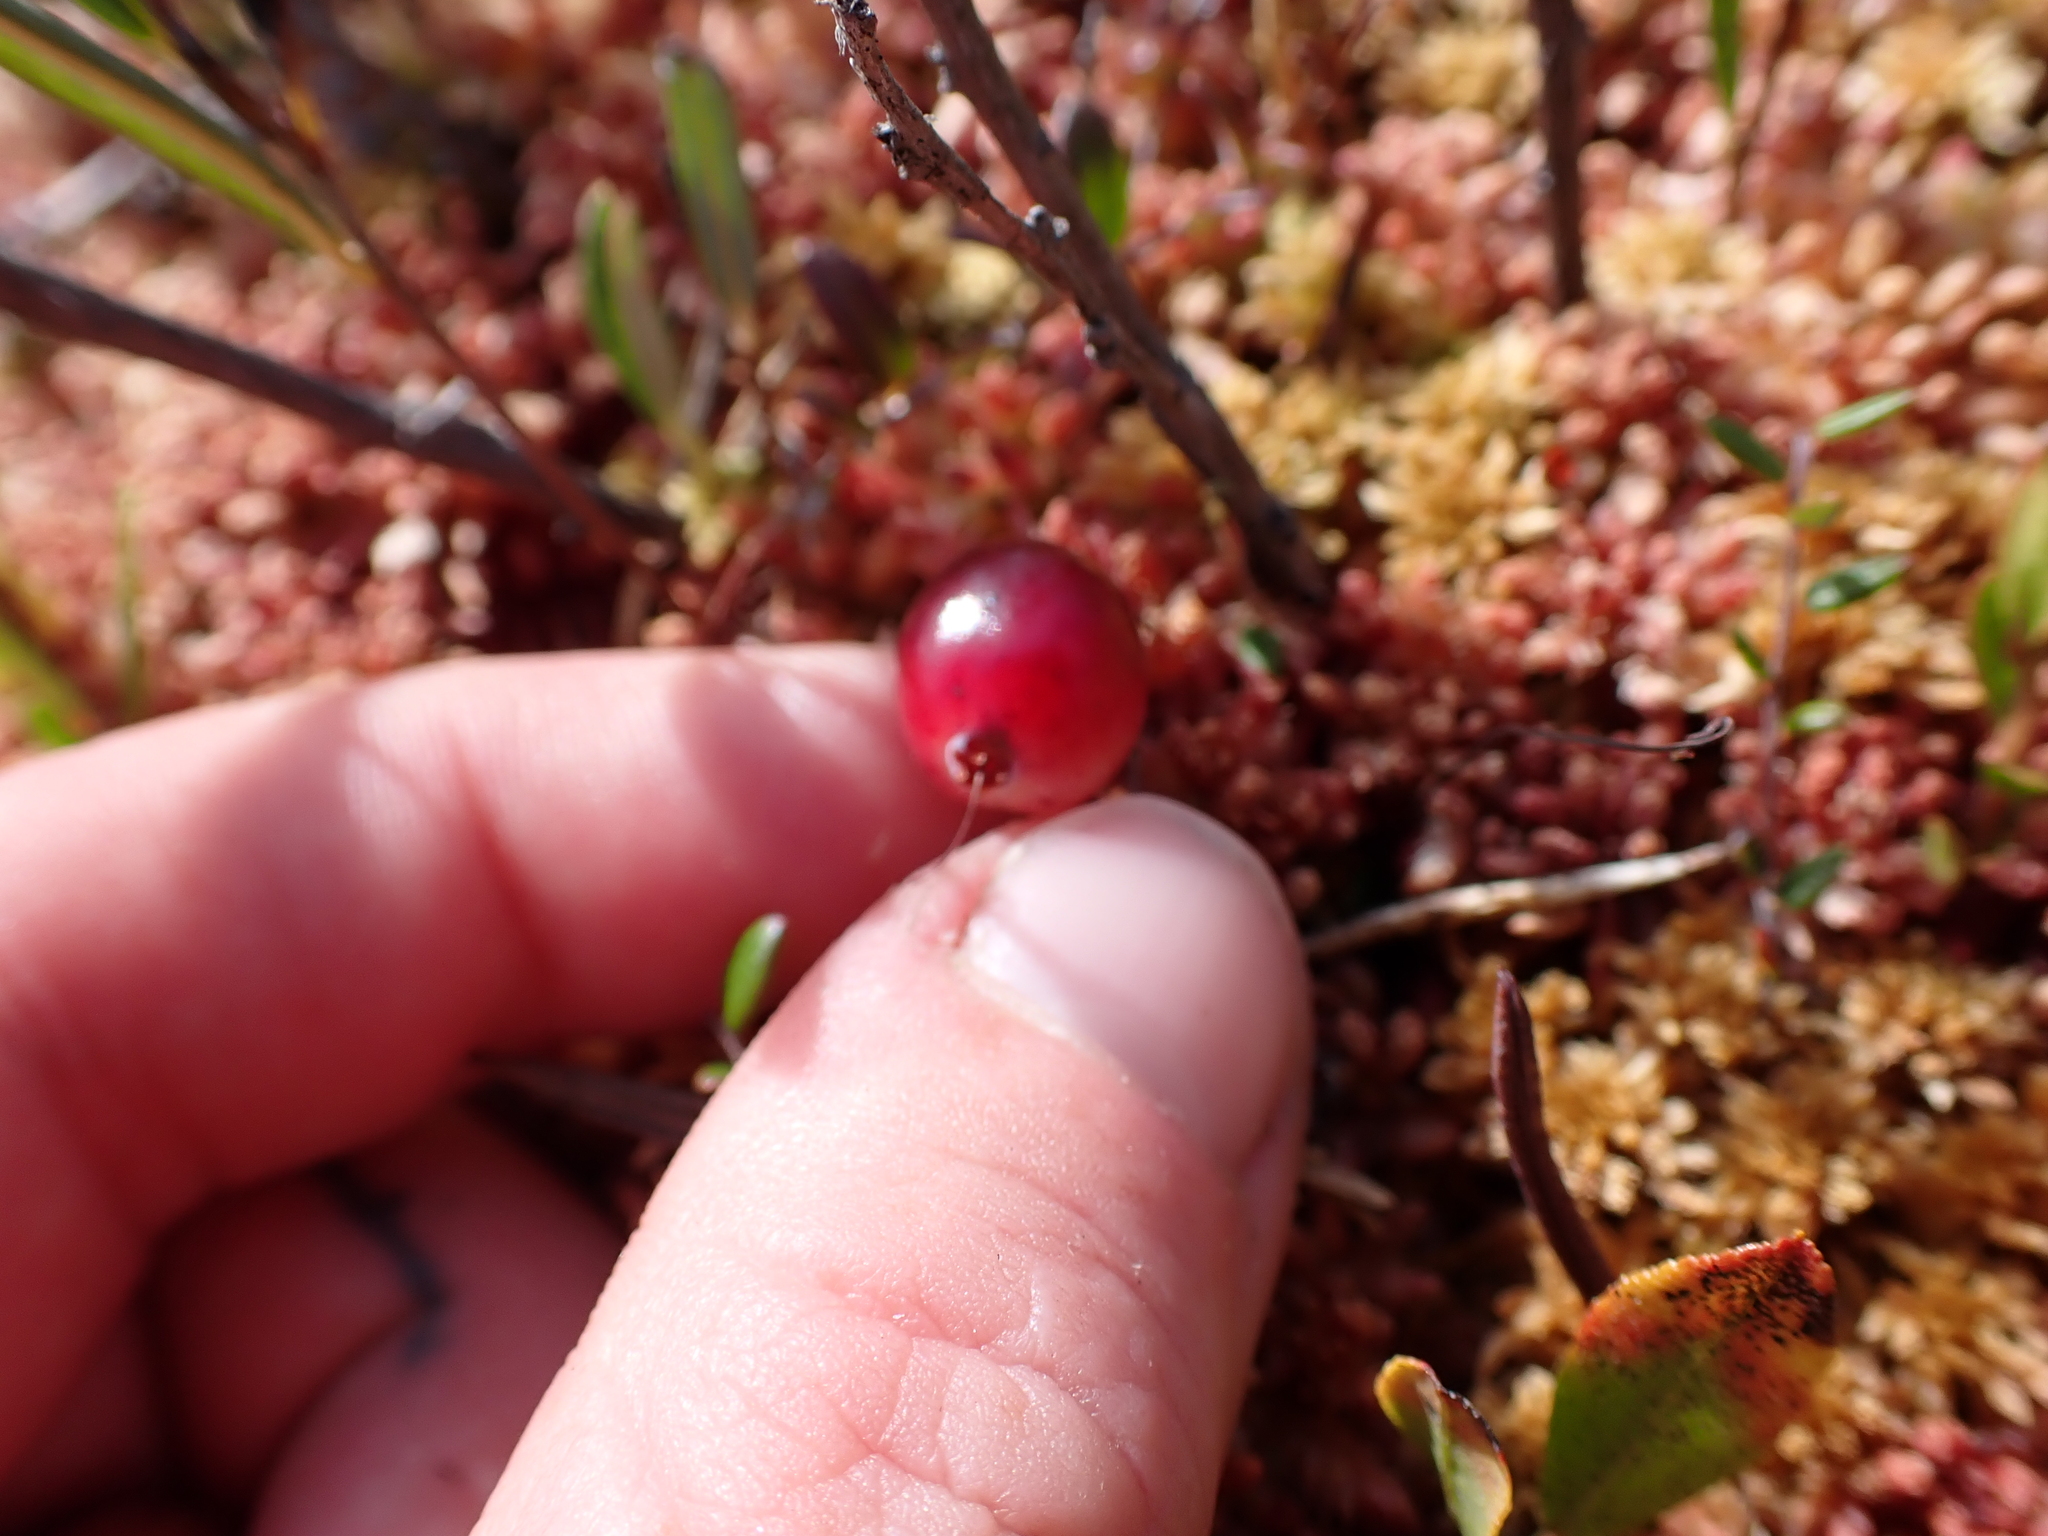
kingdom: Plantae
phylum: Tracheophyta
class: Magnoliopsida
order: Ericales
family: Ericaceae
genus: Vaccinium
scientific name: Vaccinium oxycoccos
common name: Cranberry
